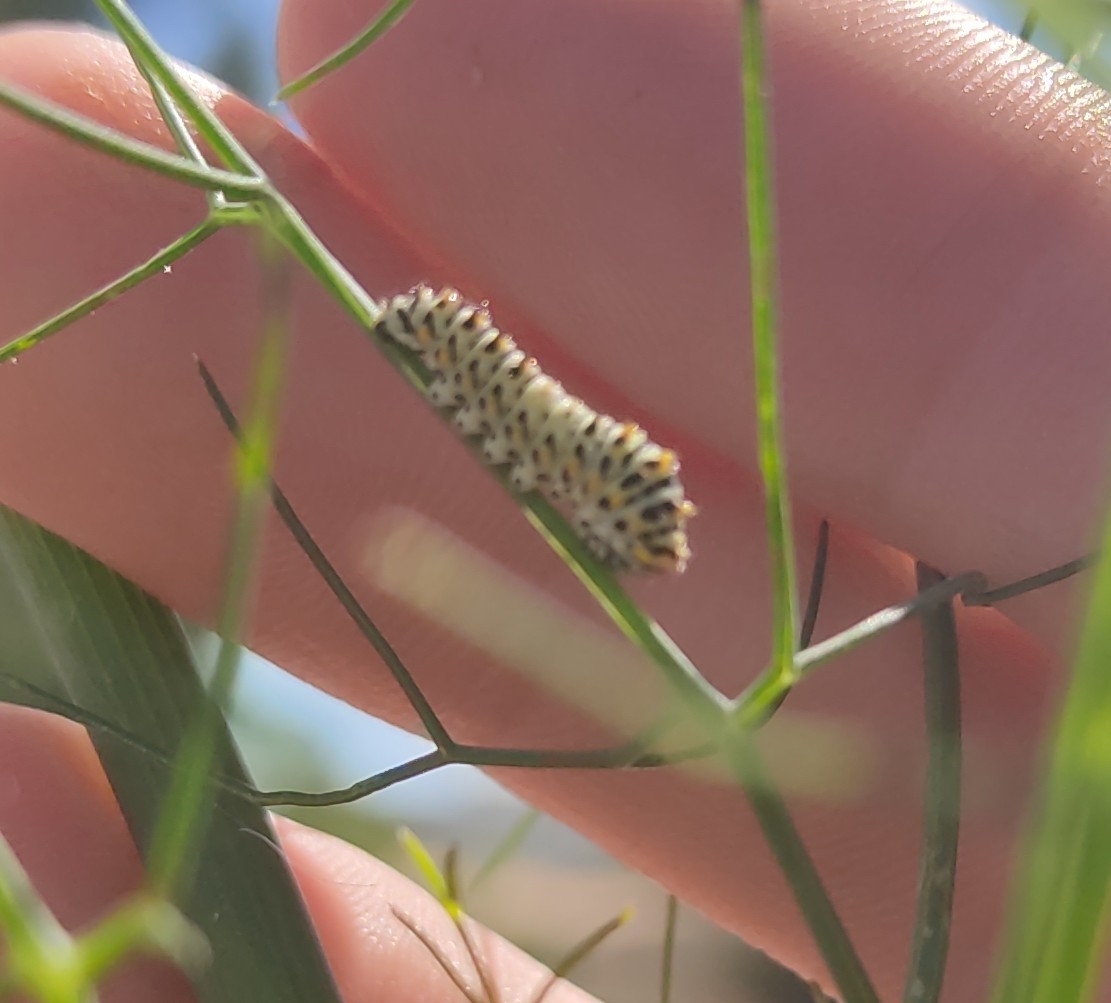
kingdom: Animalia
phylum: Arthropoda
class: Insecta
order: Lepidoptera
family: Papilionidae
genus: Papilio
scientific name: Papilio machaon
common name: Swallowtail
